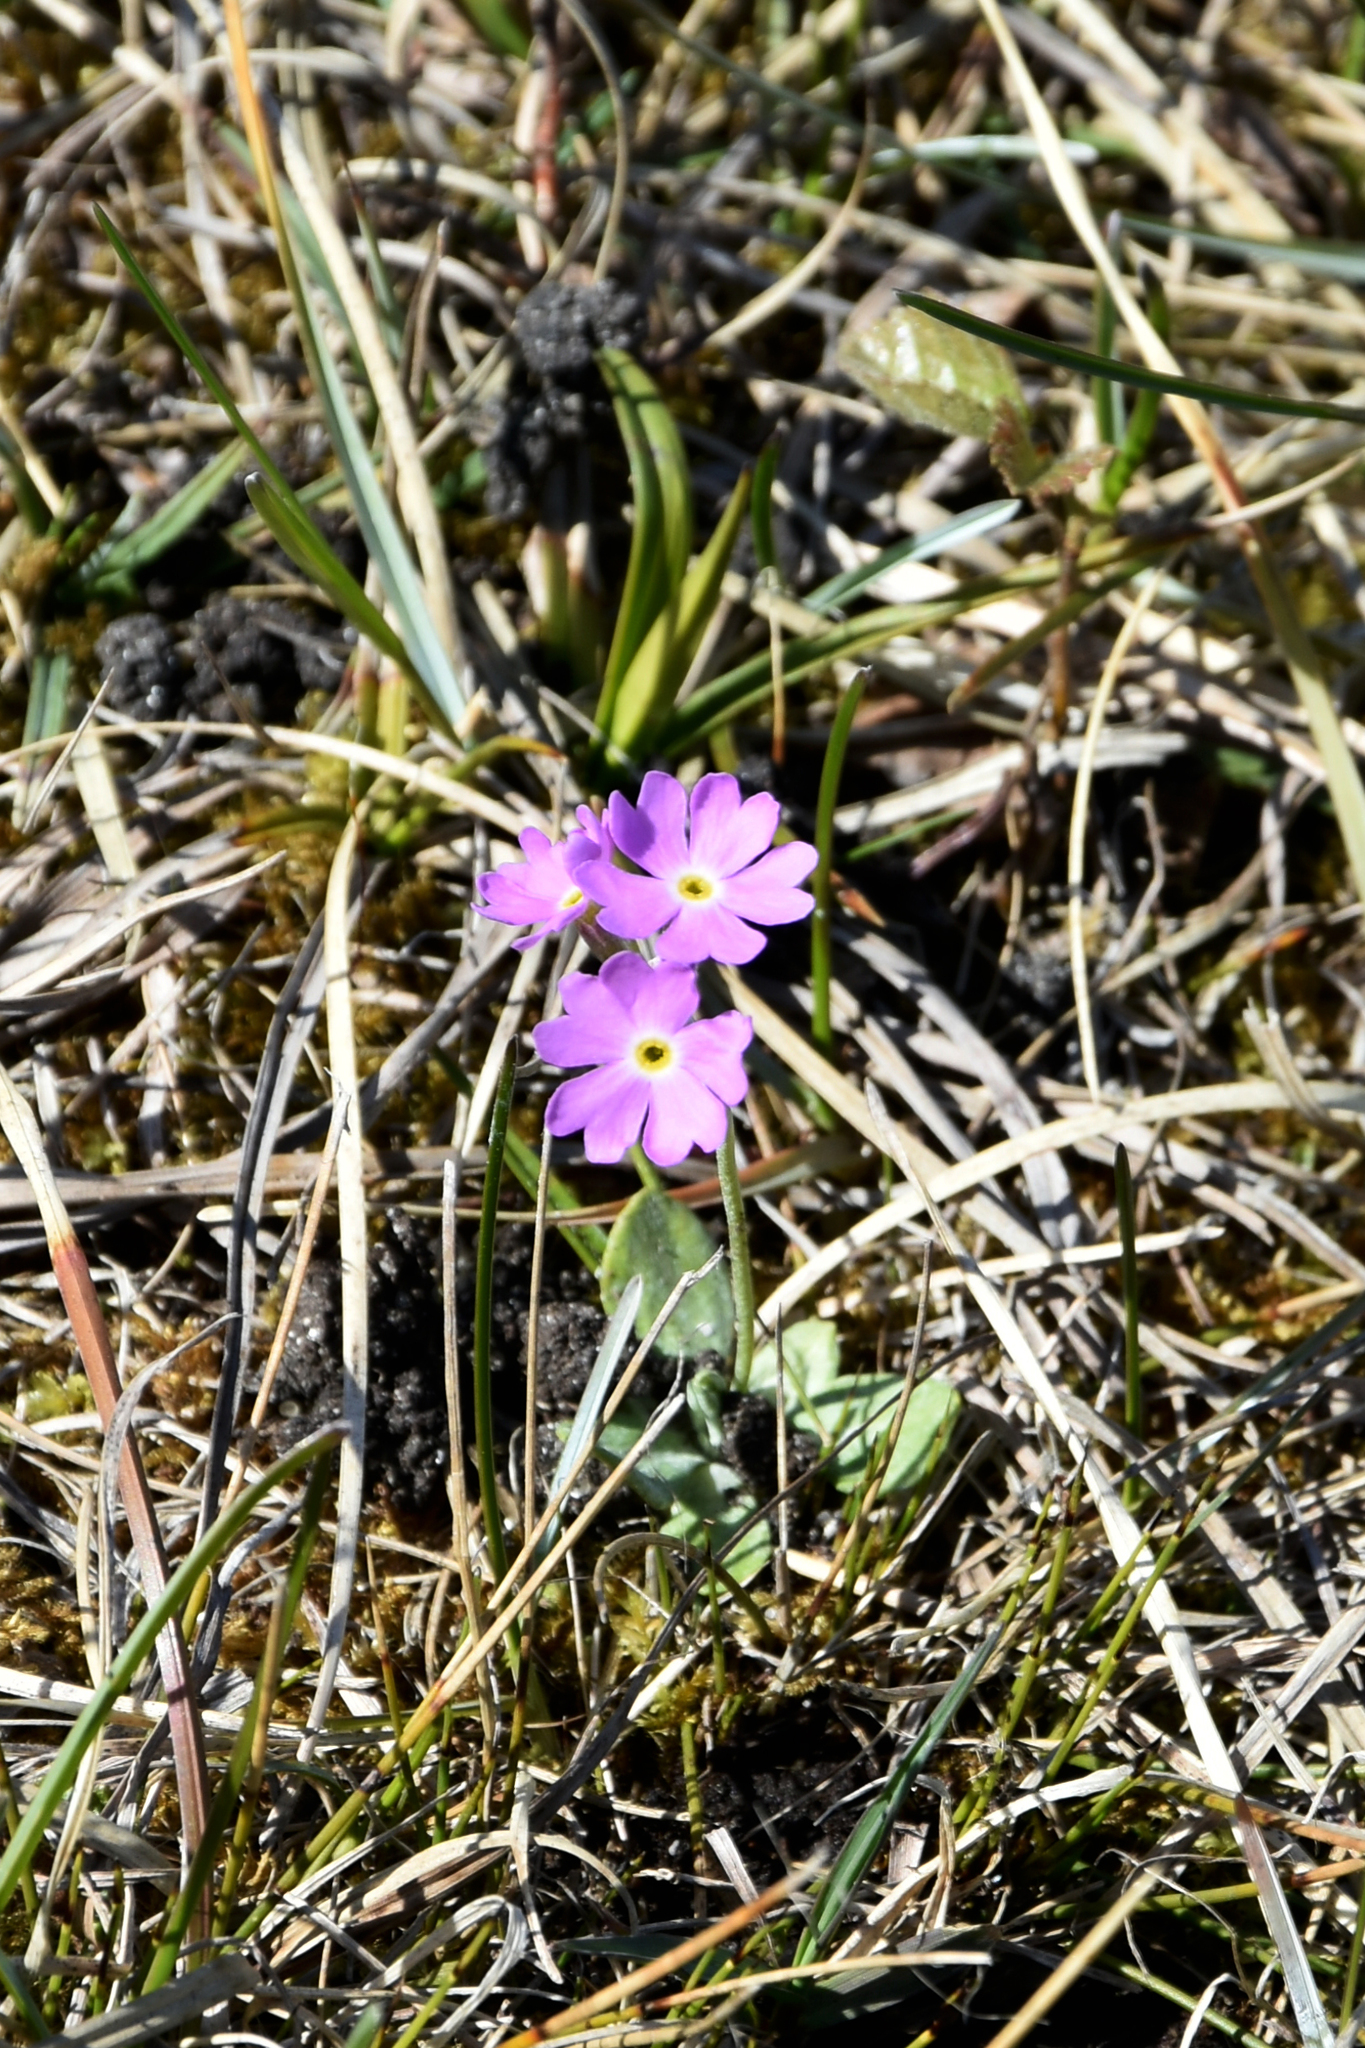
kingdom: Plantae
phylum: Tracheophyta
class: Magnoliopsida
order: Ericales
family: Primulaceae
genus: Primula
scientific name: Primula farinosa
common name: Bird's-eye primrose
